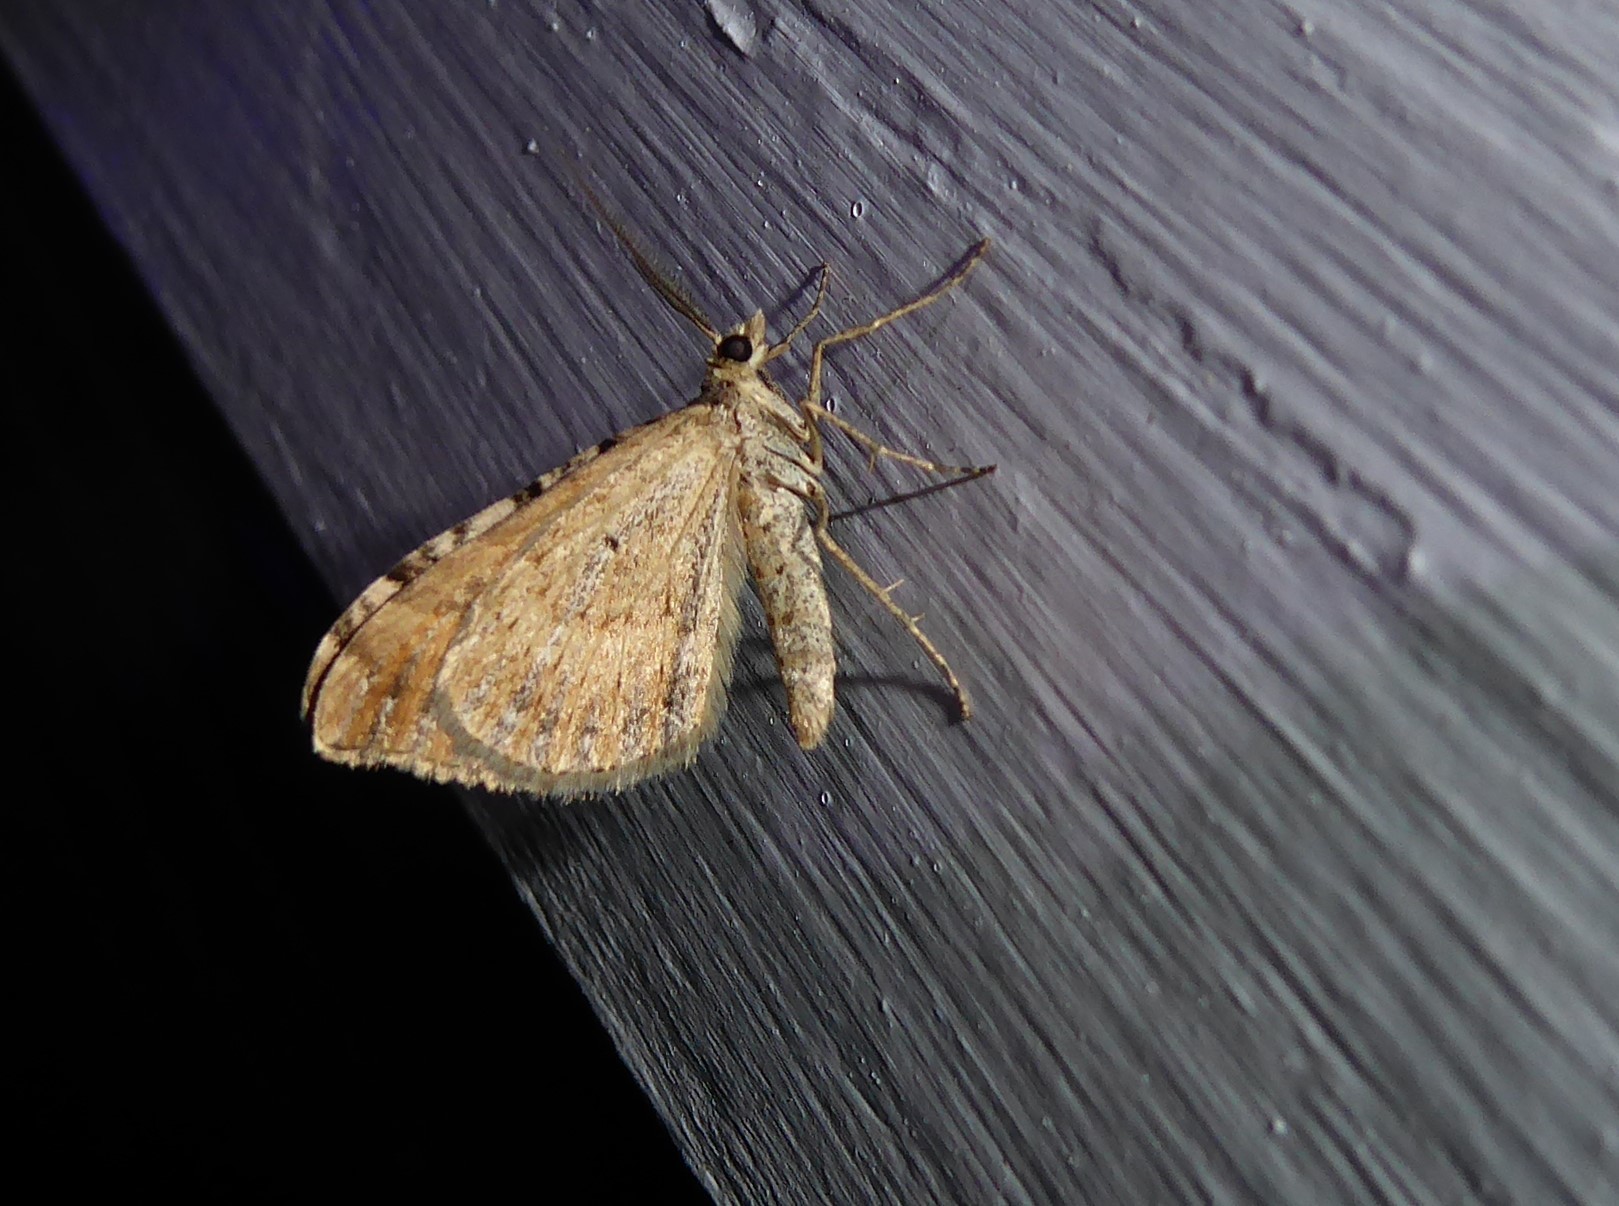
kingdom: Animalia
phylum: Arthropoda
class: Insecta
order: Lepidoptera
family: Geometridae
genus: Xanthorhoe
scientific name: Xanthorhoe semifissata
